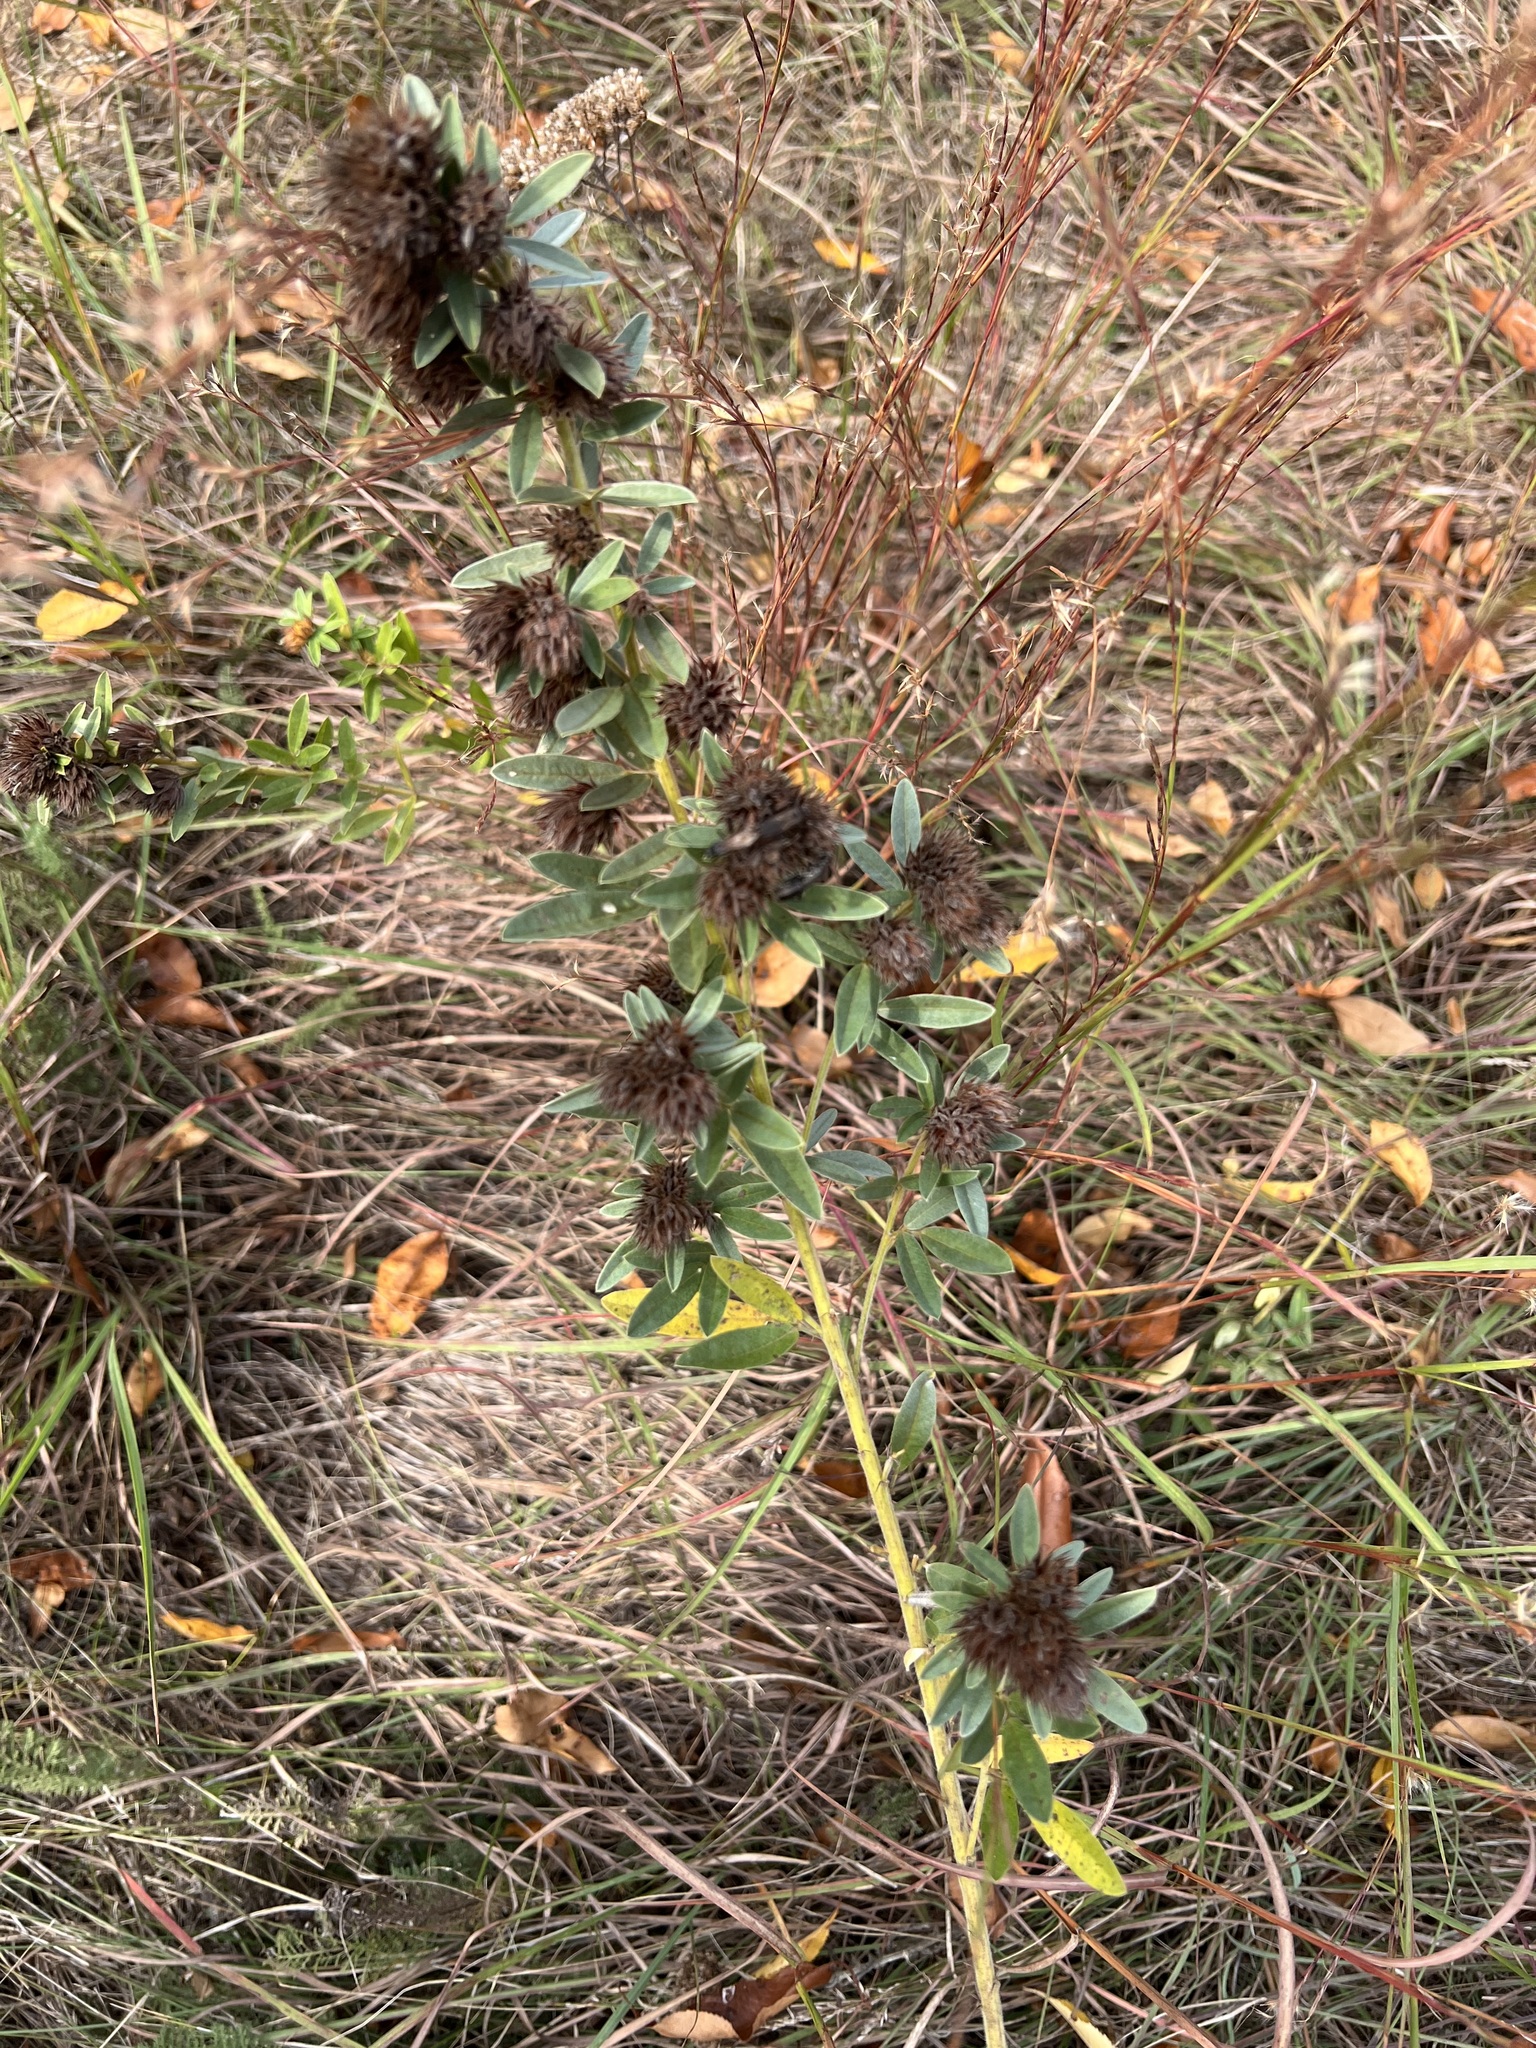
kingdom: Plantae
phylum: Tracheophyta
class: Magnoliopsida
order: Fabales
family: Fabaceae
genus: Lespedeza
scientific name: Lespedeza capitata
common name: Dusty clover
